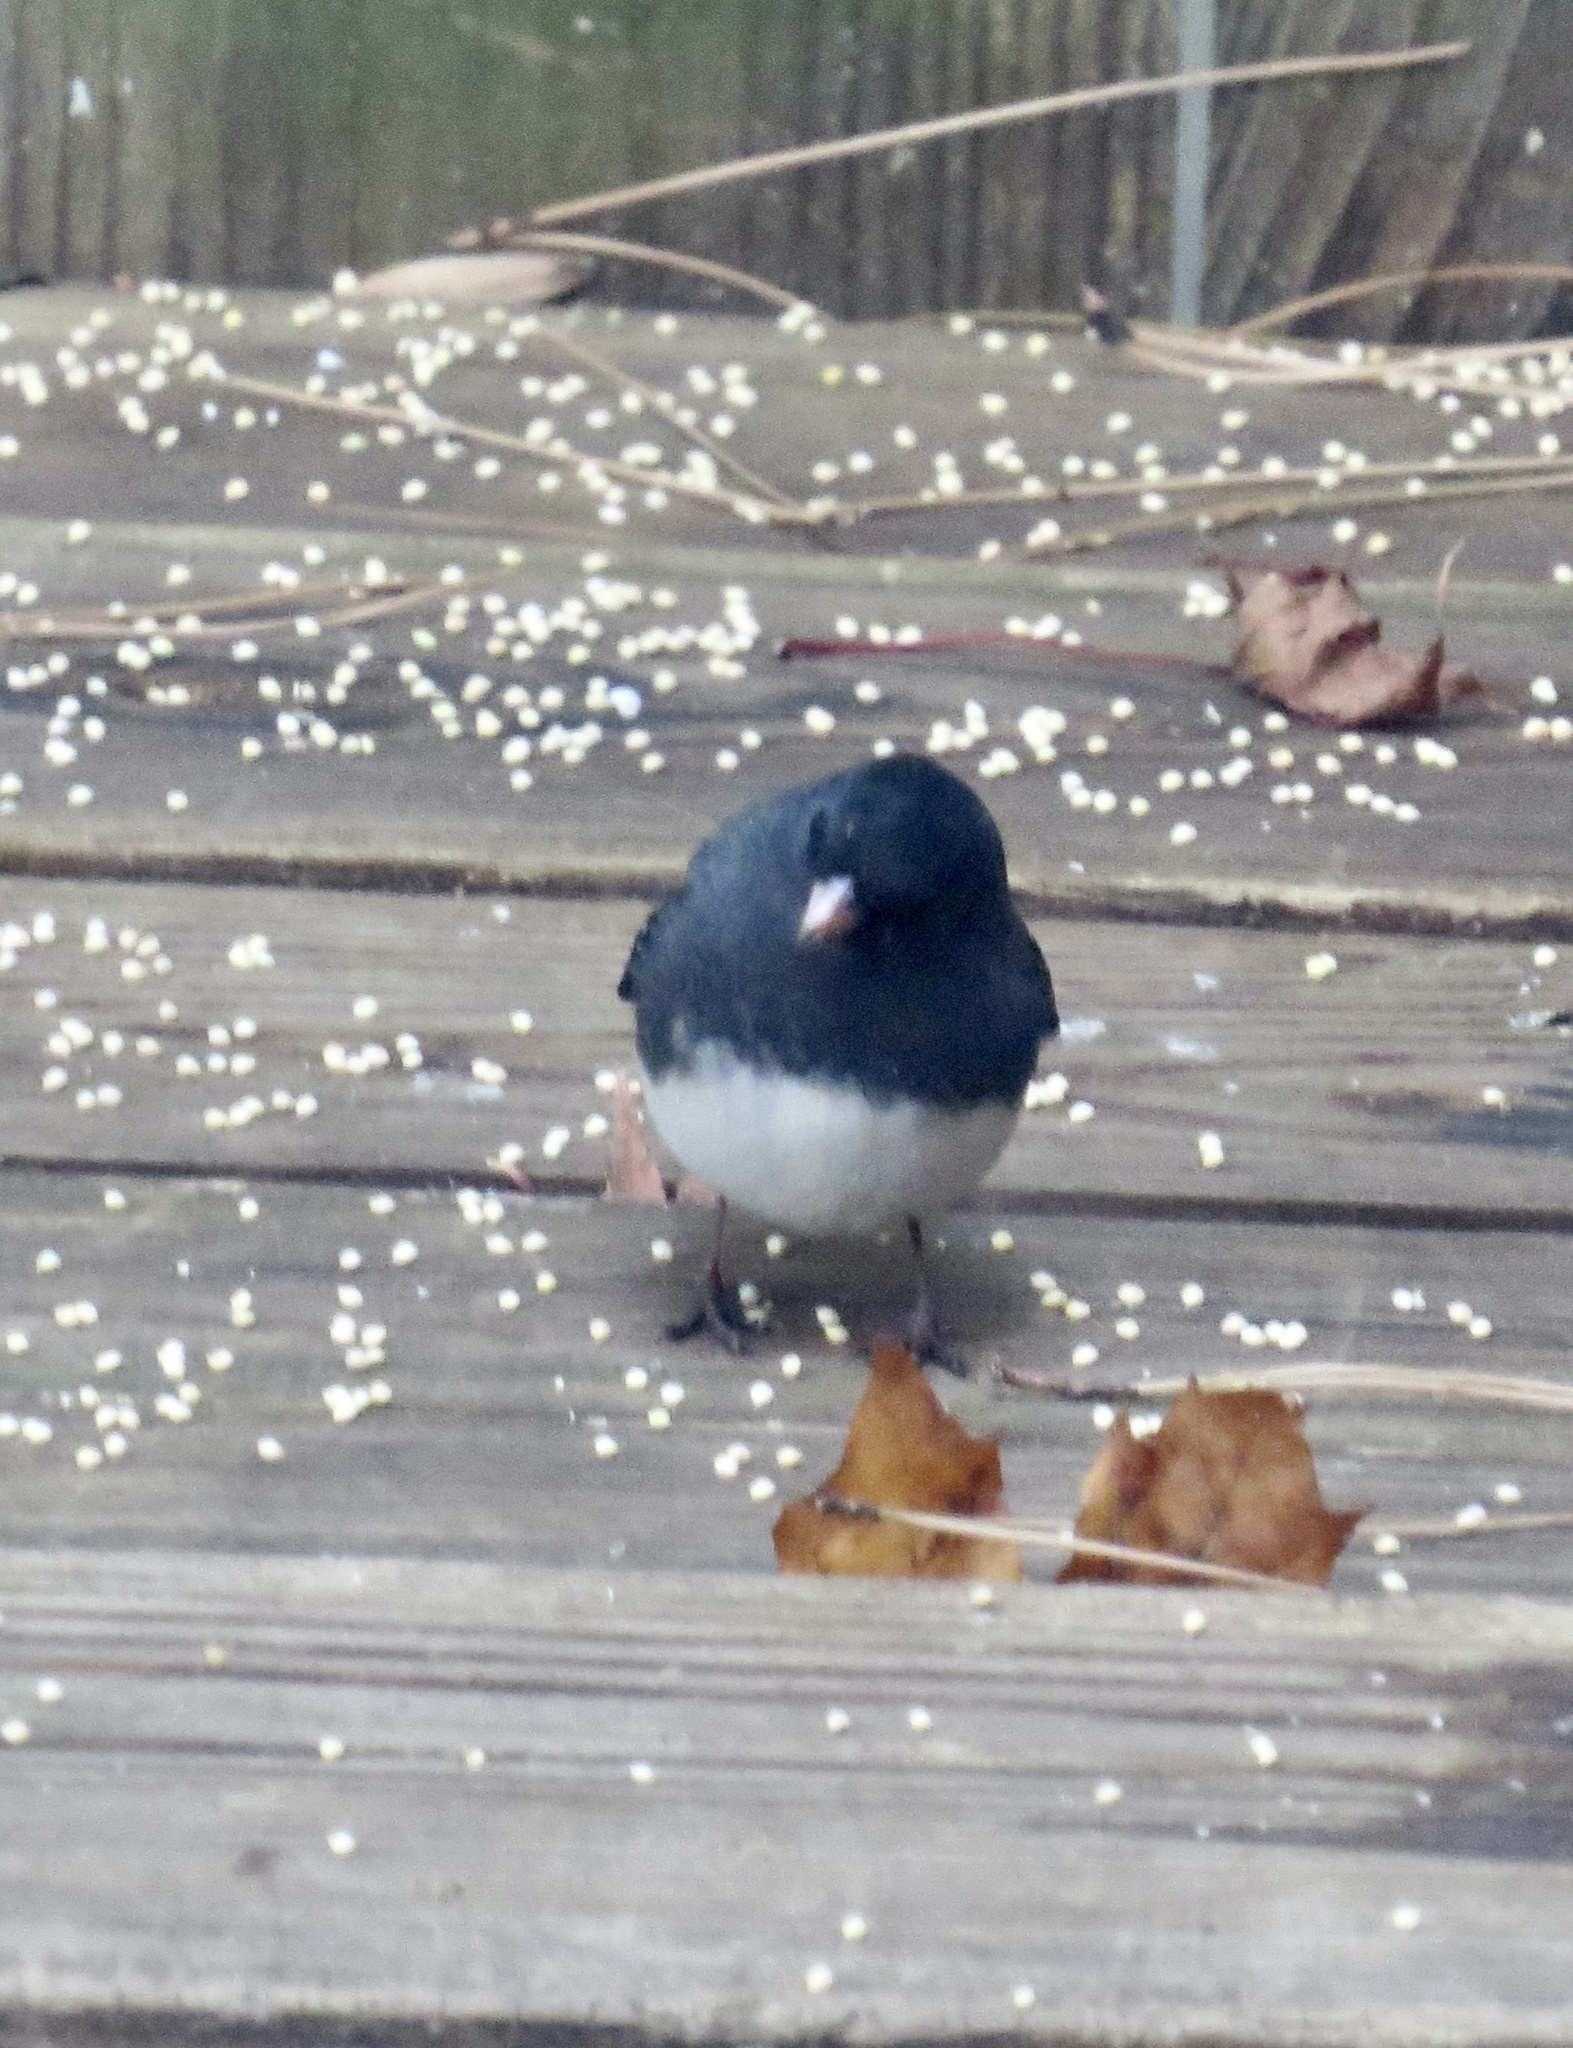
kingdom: Animalia
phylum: Chordata
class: Aves
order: Passeriformes
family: Passerellidae
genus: Junco
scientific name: Junco hyemalis
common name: Dark-eyed junco
